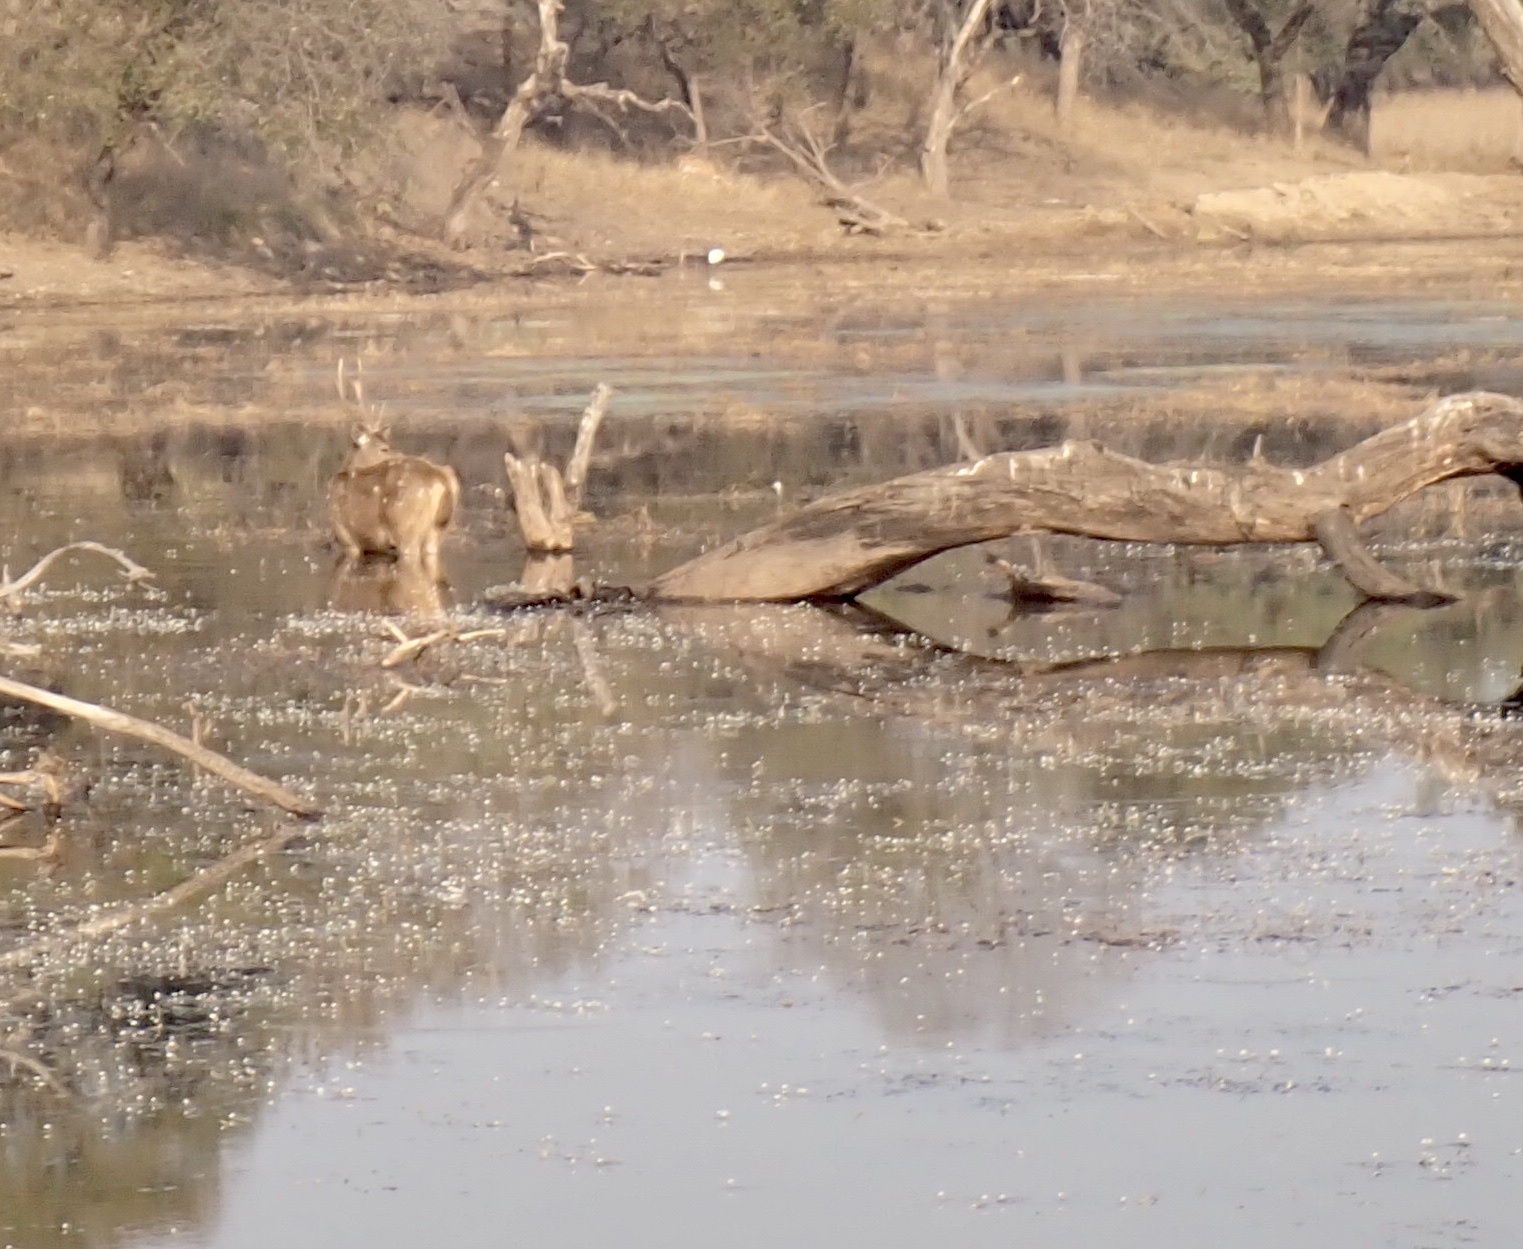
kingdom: Animalia
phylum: Chordata
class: Mammalia
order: Artiodactyla
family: Cervidae
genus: Rusa
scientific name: Rusa unicolor
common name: Sambar
